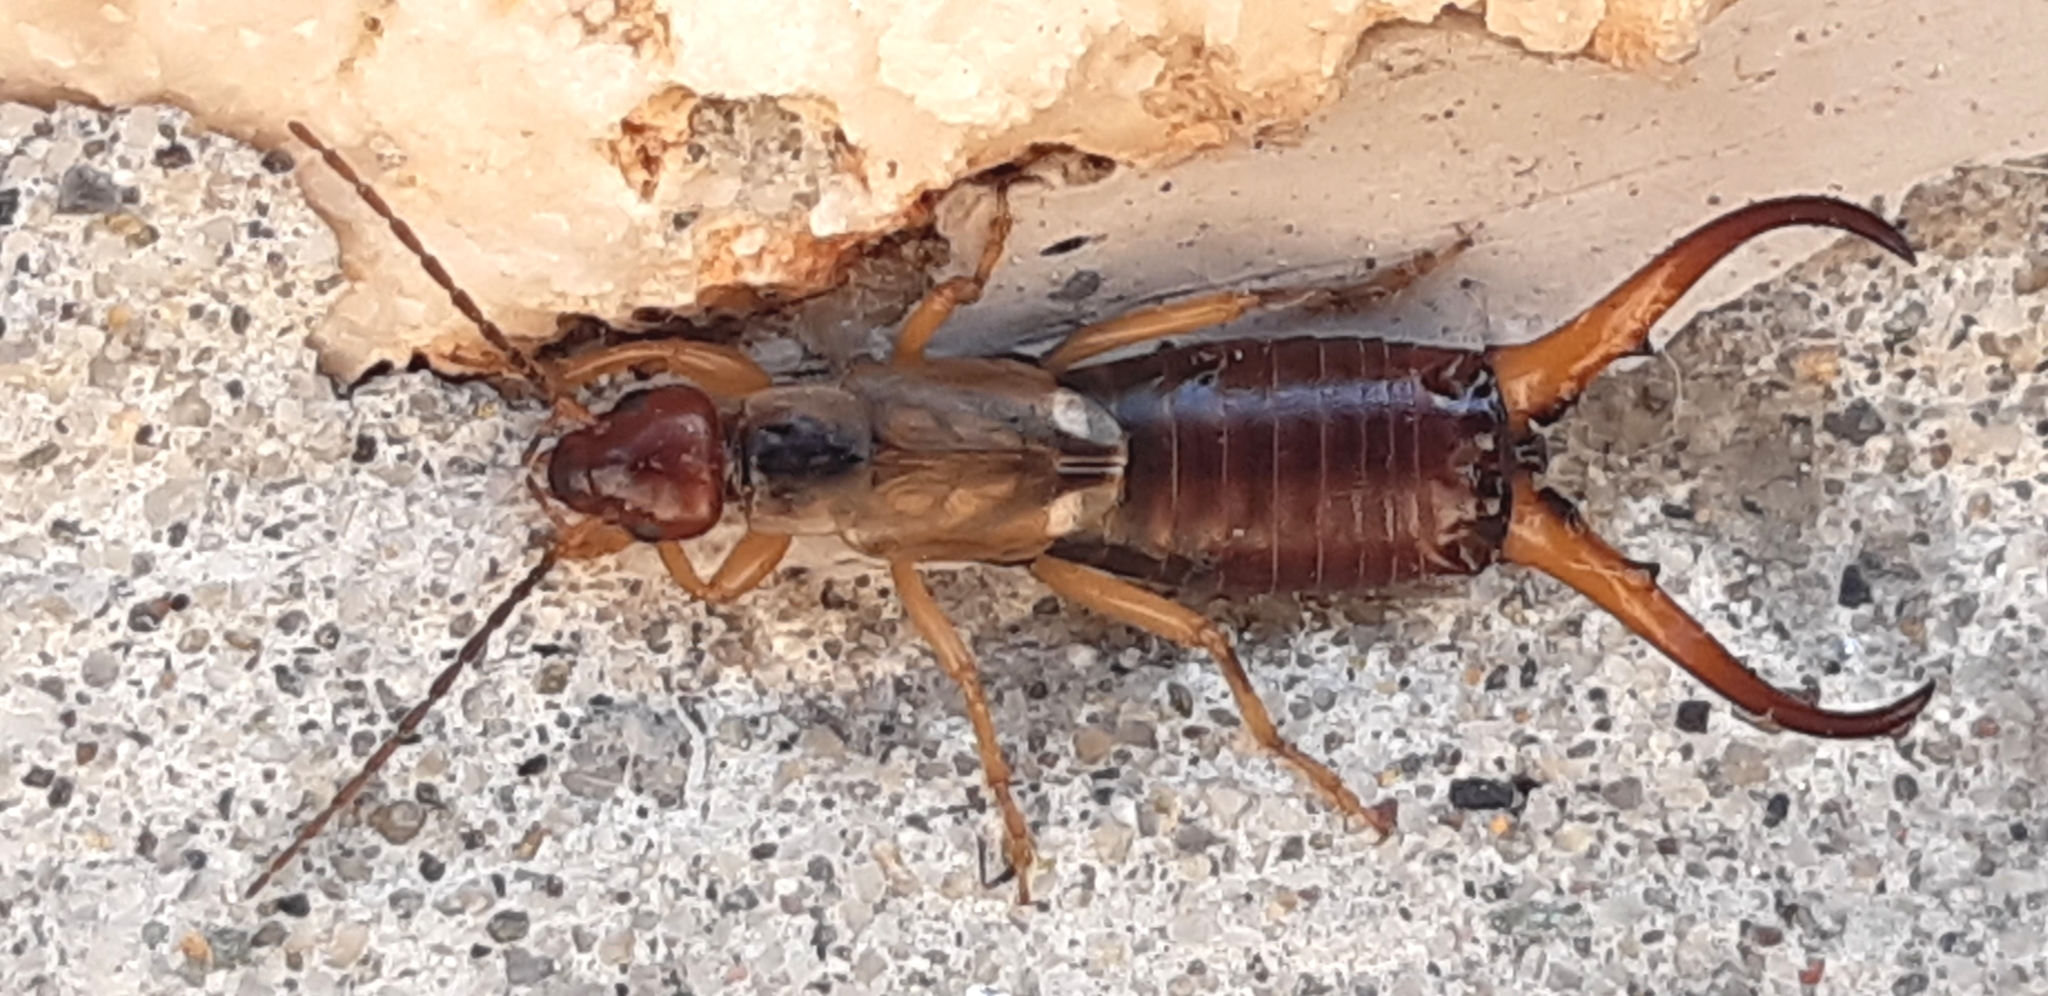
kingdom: Animalia
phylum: Arthropoda
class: Insecta
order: Dermaptera
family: Forficulidae
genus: Forficula
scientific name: Forficula
